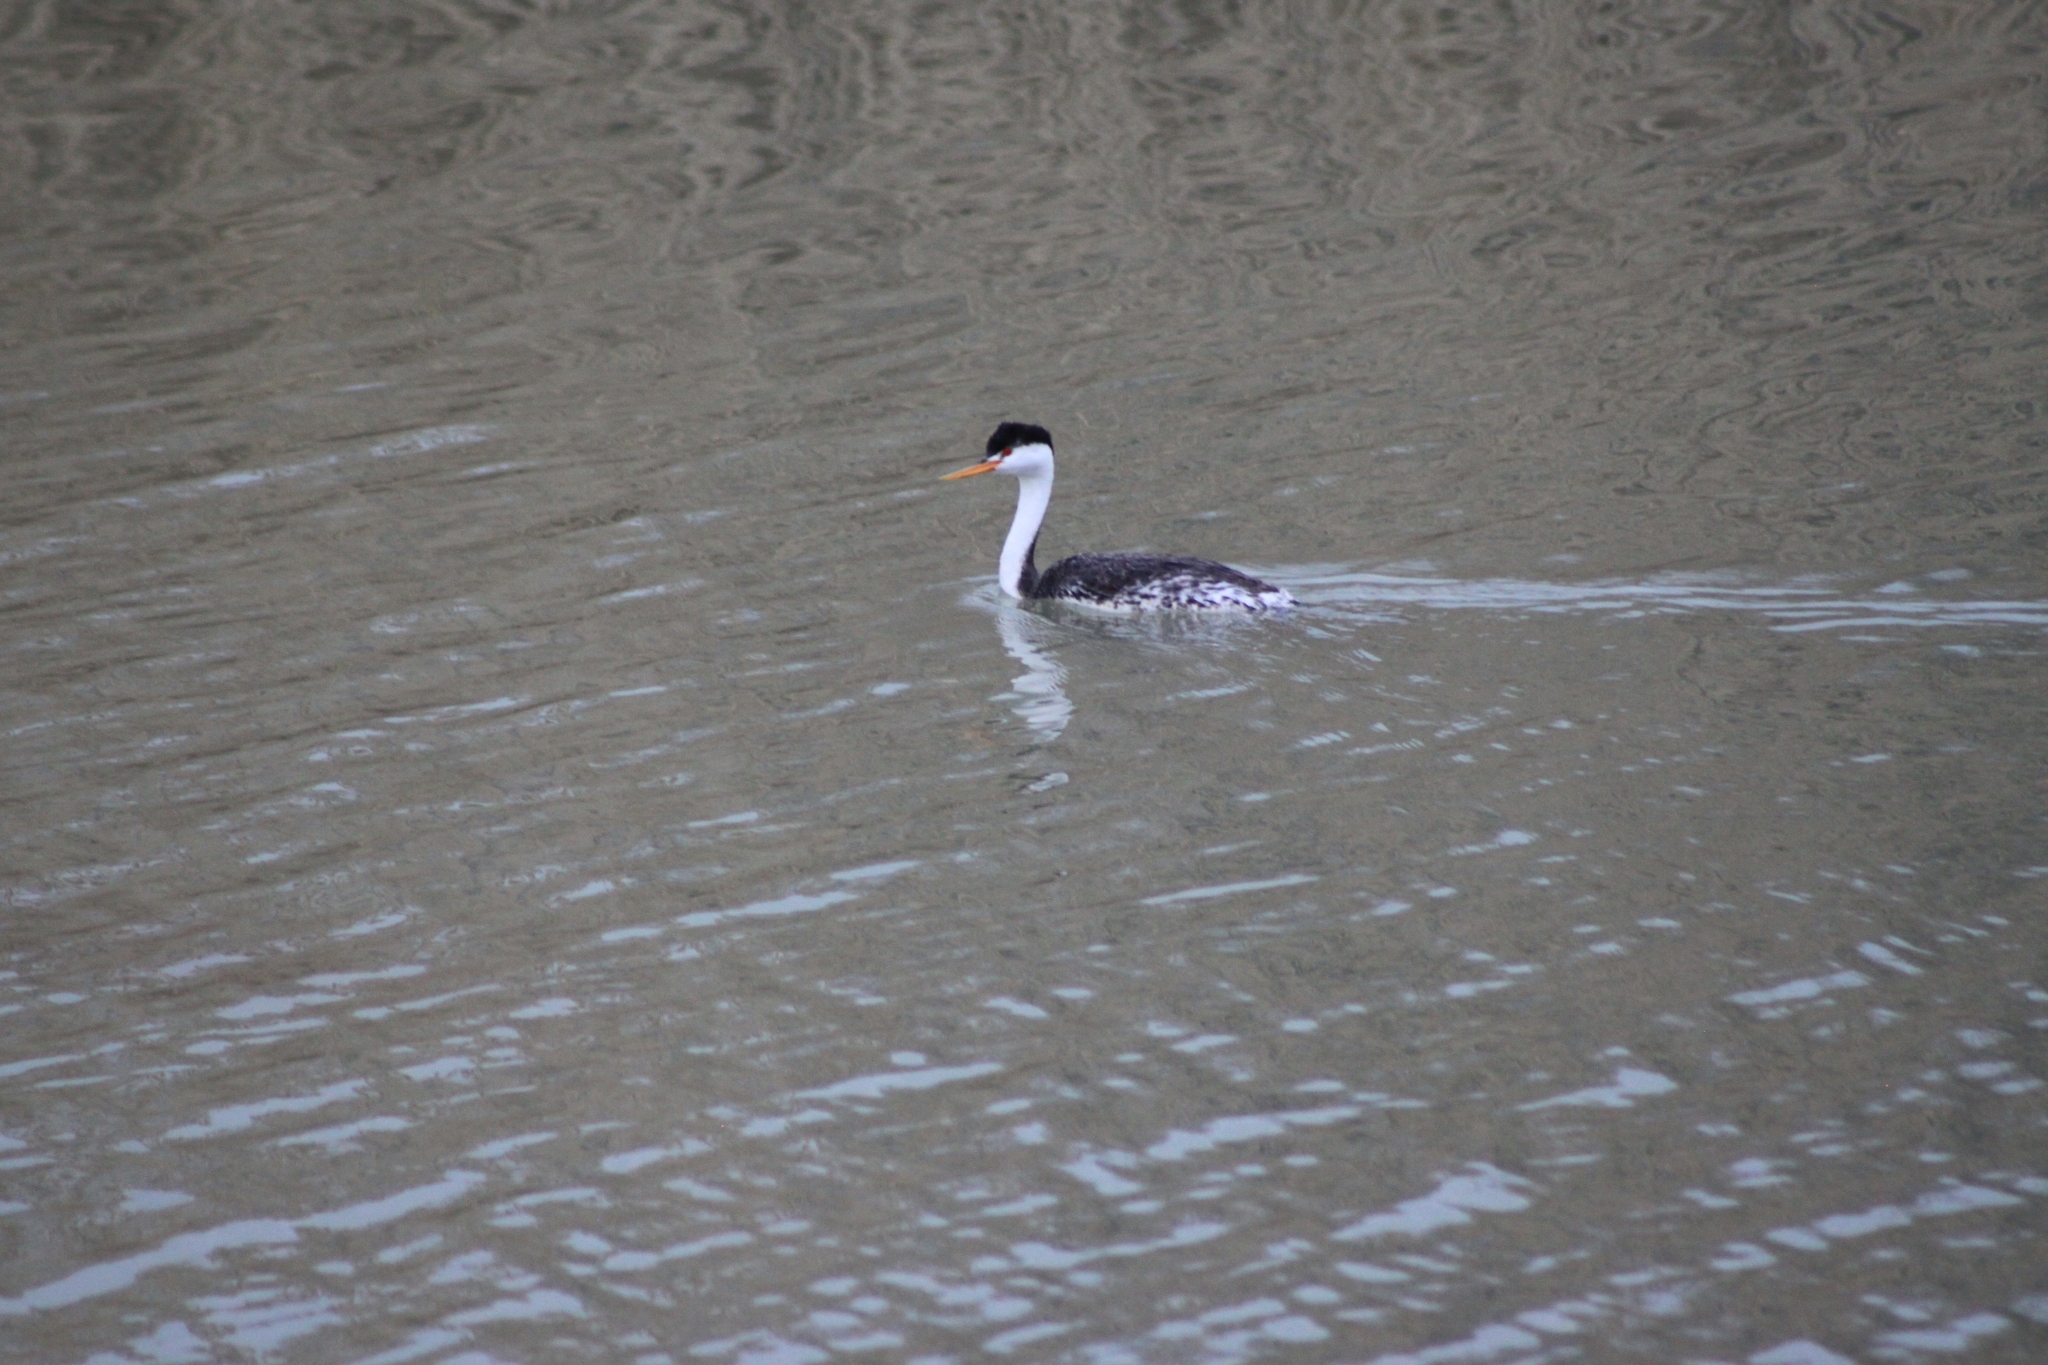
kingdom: Animalia
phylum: Chordata
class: Aves
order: Podicipediformes
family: Podicipedidae
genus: Aechmophorus
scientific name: Aechmophorus clarkii
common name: Clark's grebe
